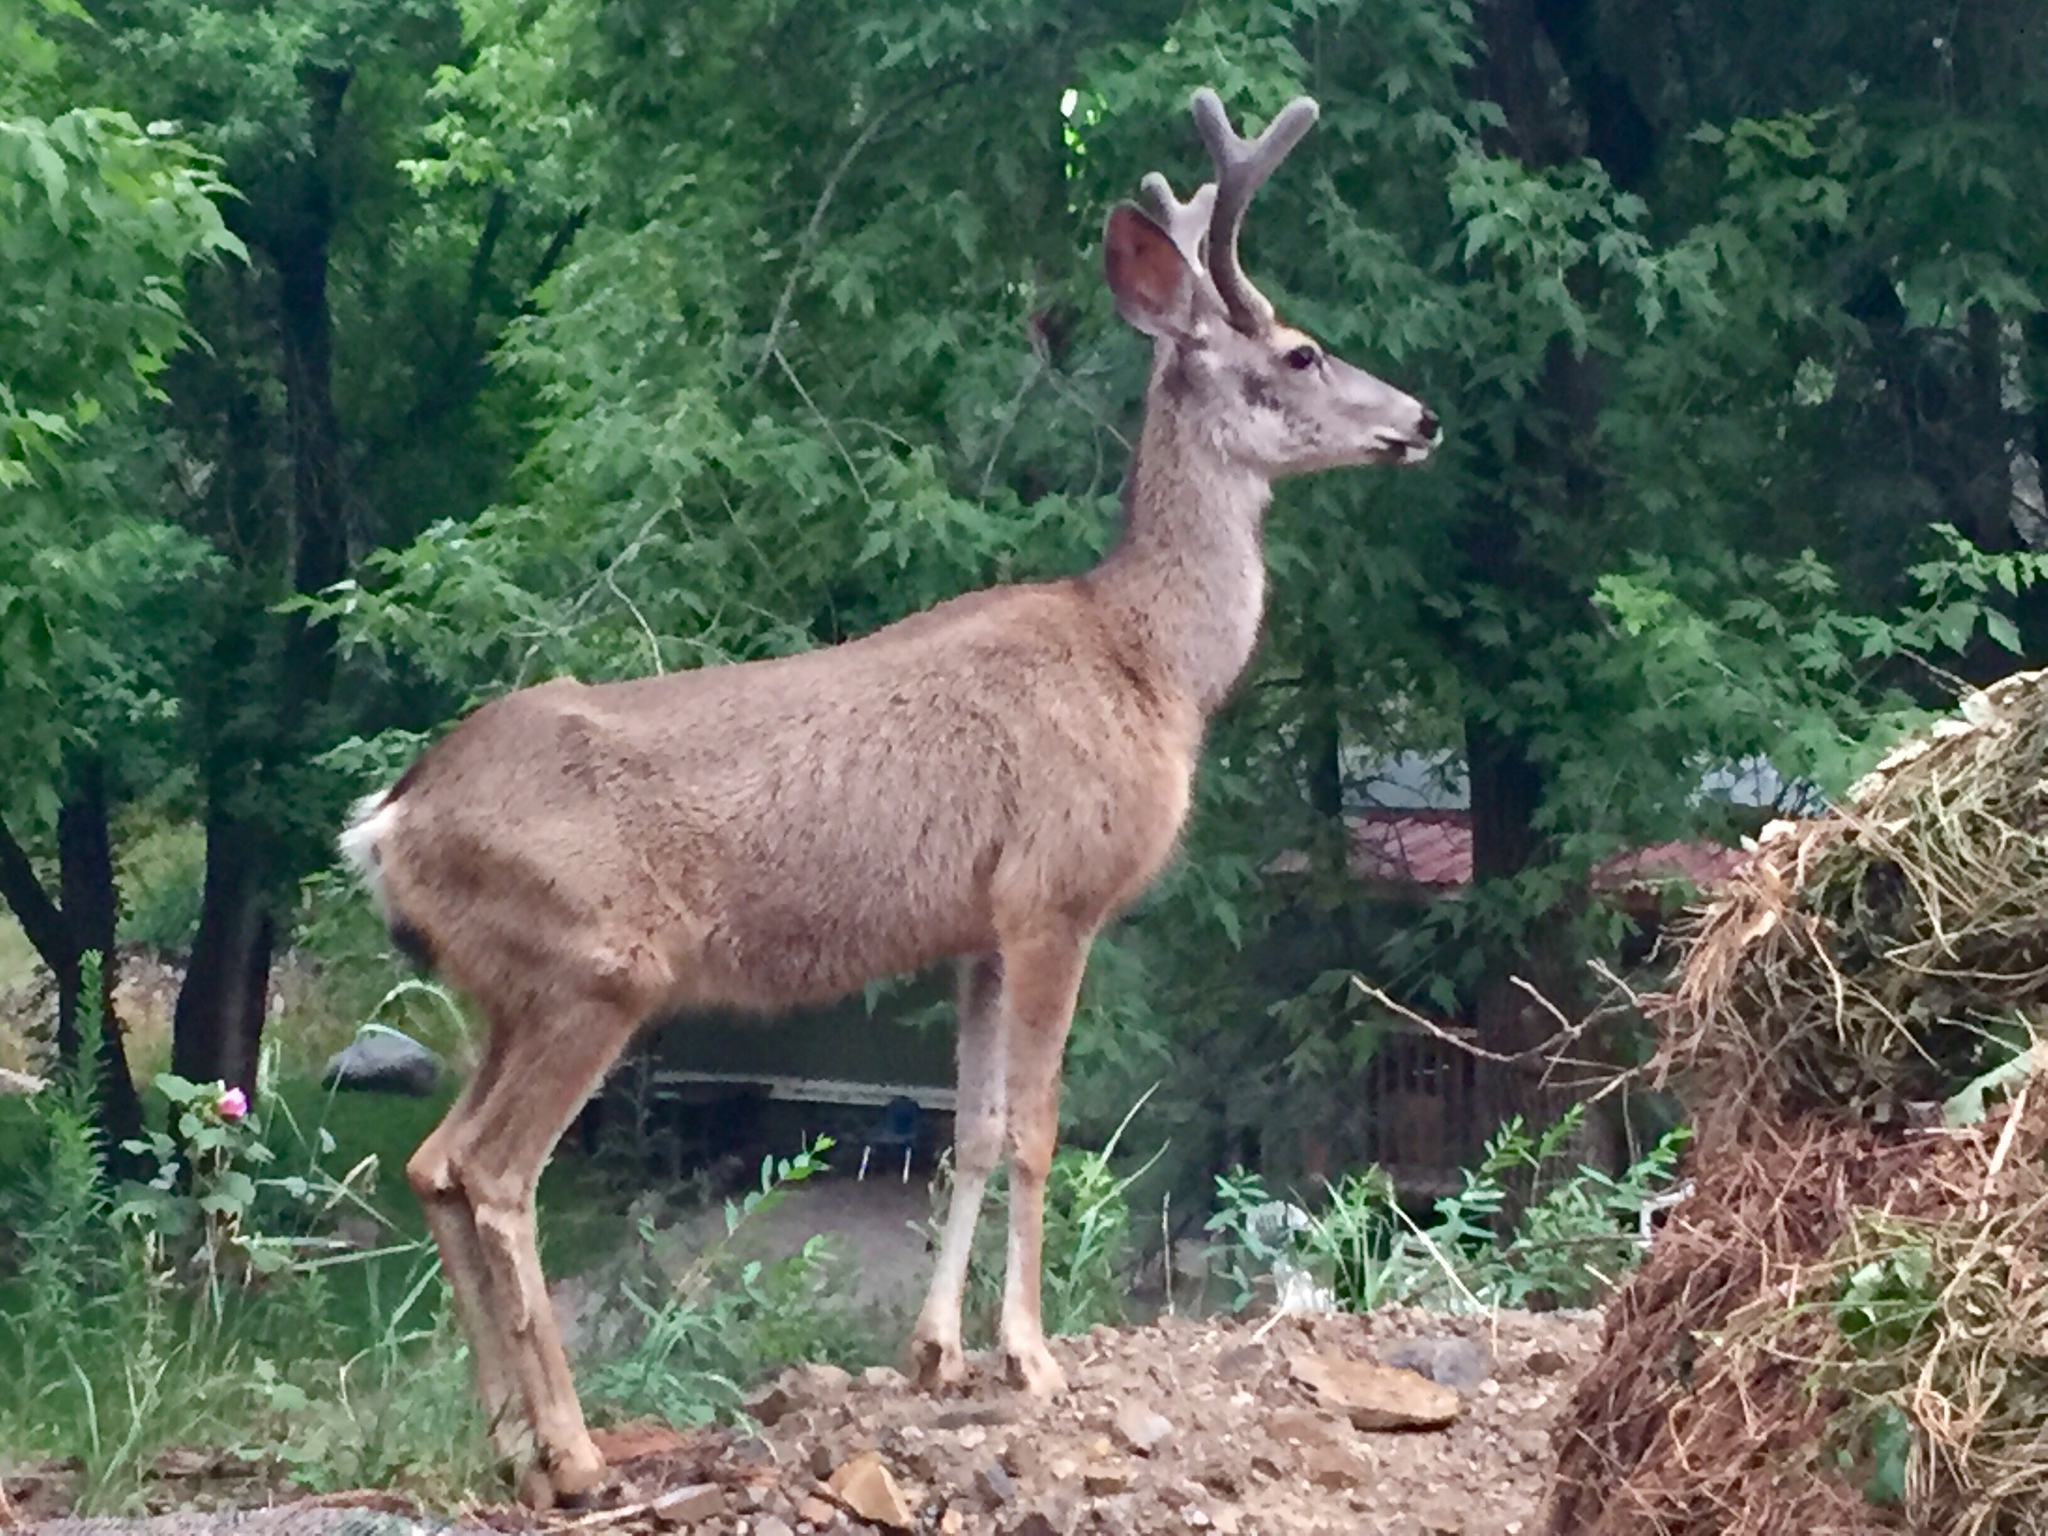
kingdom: Animalia
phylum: Chordata
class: Mammalia
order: Artiodactyla
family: Cervidae
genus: Odocoileus
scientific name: Odocoileus hemionus
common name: Mule deer
